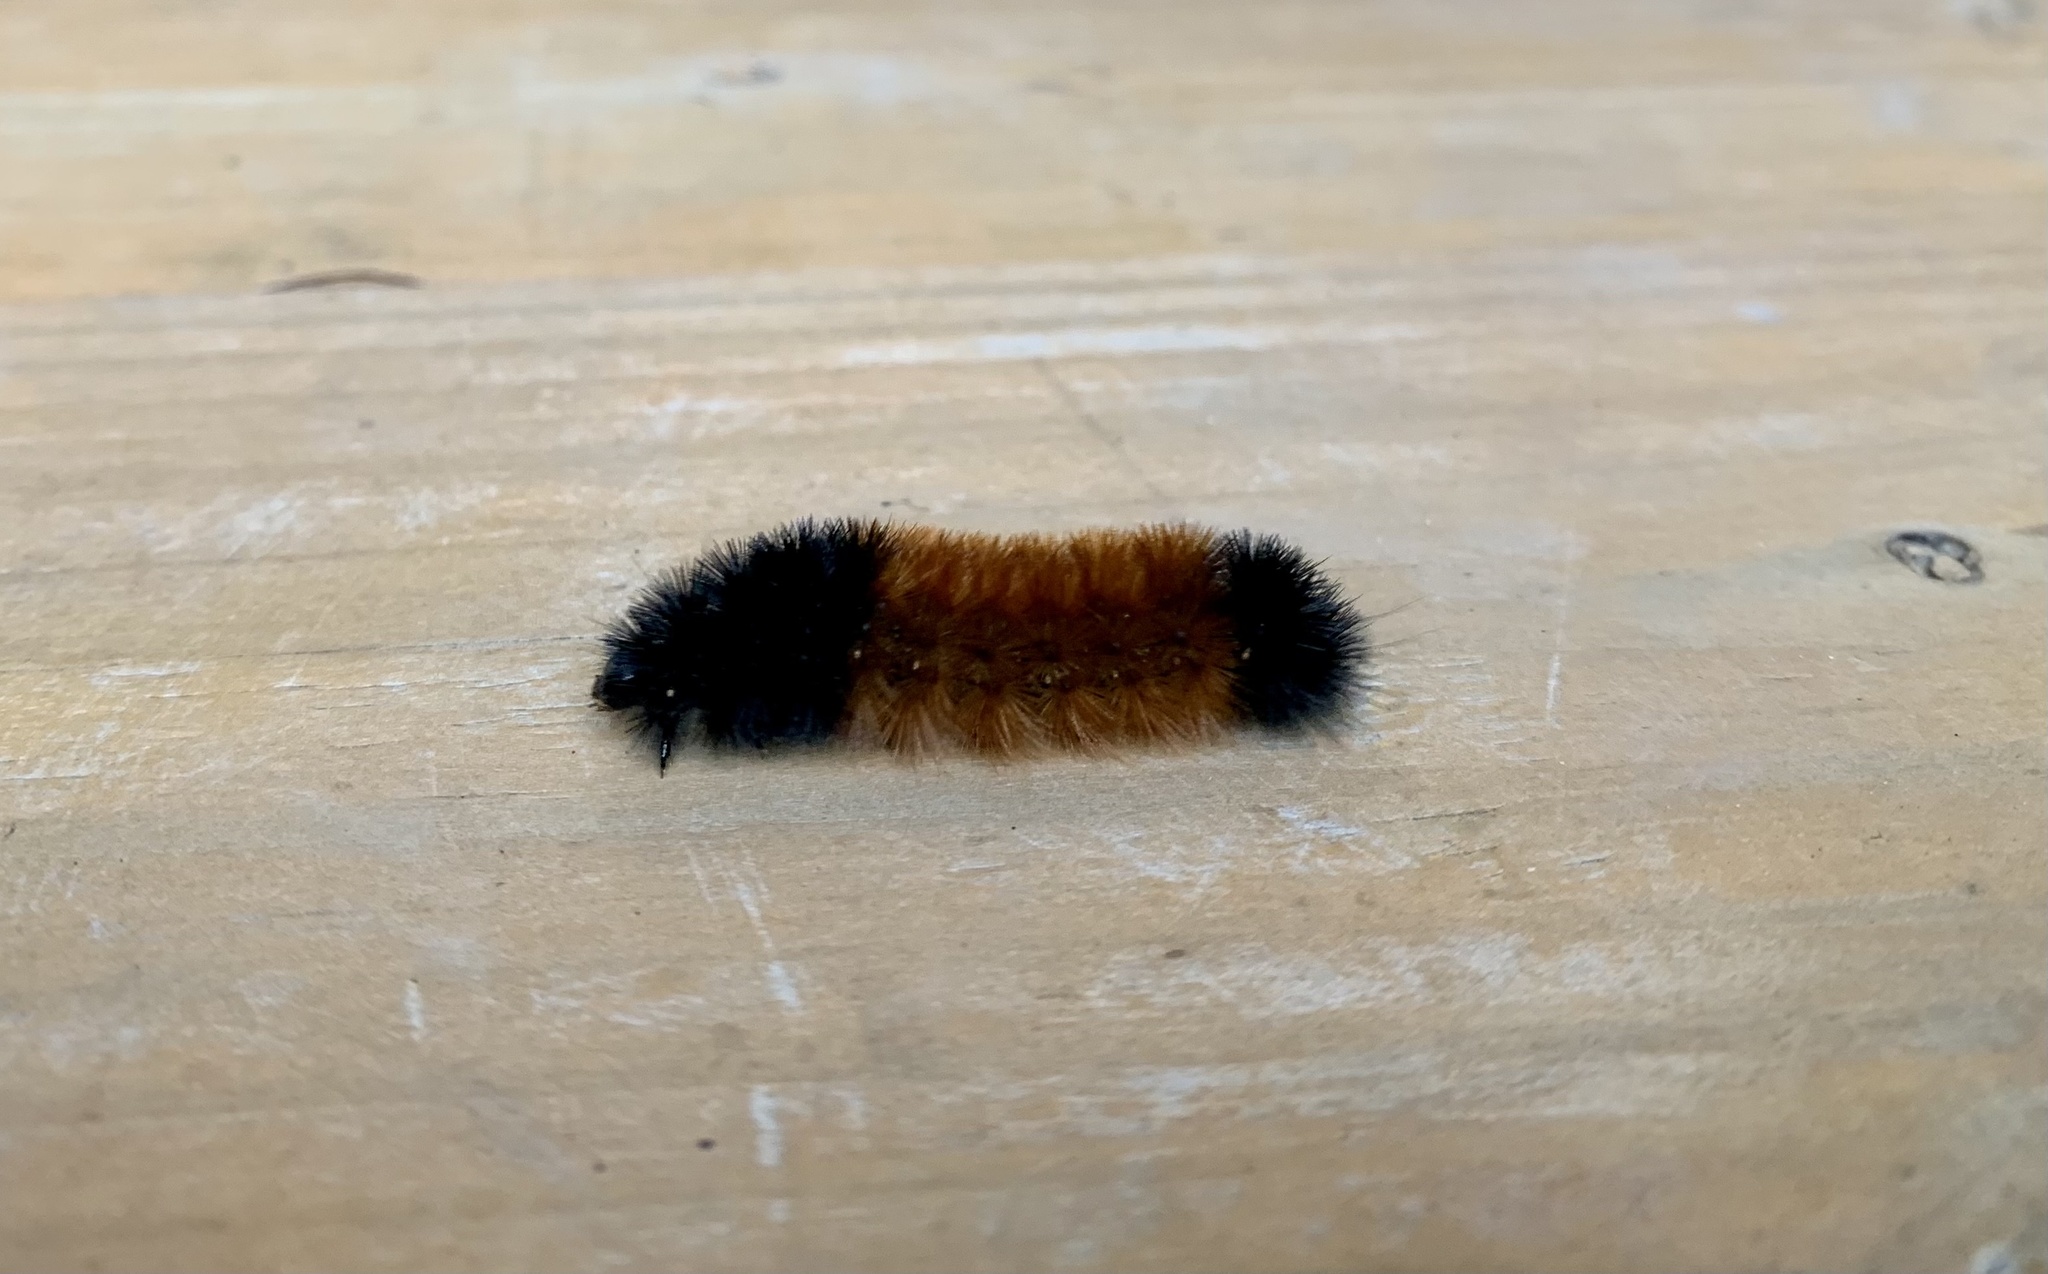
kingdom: Animalia
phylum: Arthropoda
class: Insecta
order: Lepidoptera
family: Erebidae
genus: Pyrrharctia
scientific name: Pyrrharctia isabella
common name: Isabella tiger moth
